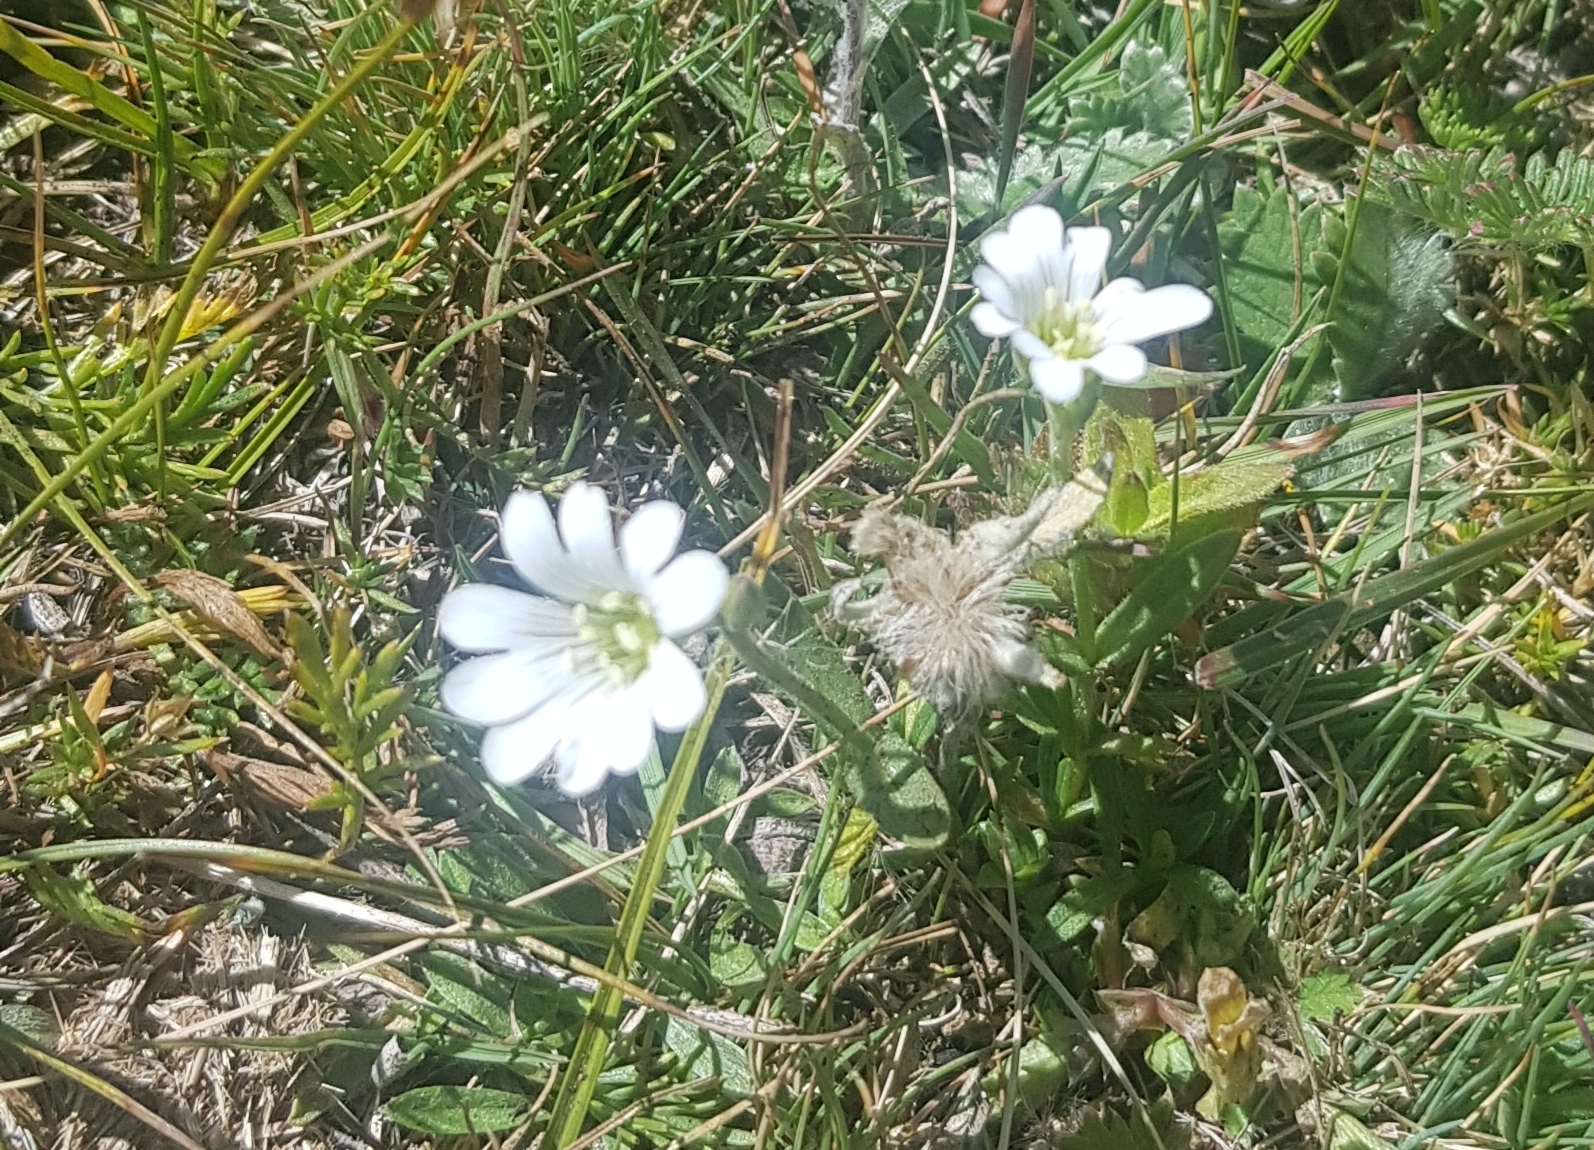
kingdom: Plantae
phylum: Tracheophyta
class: Magnoliopsida
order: Caryophyllales
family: Caryophyllaceae
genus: Cerastium
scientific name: Cerastium alpinum
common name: Alpine mouse-ear
